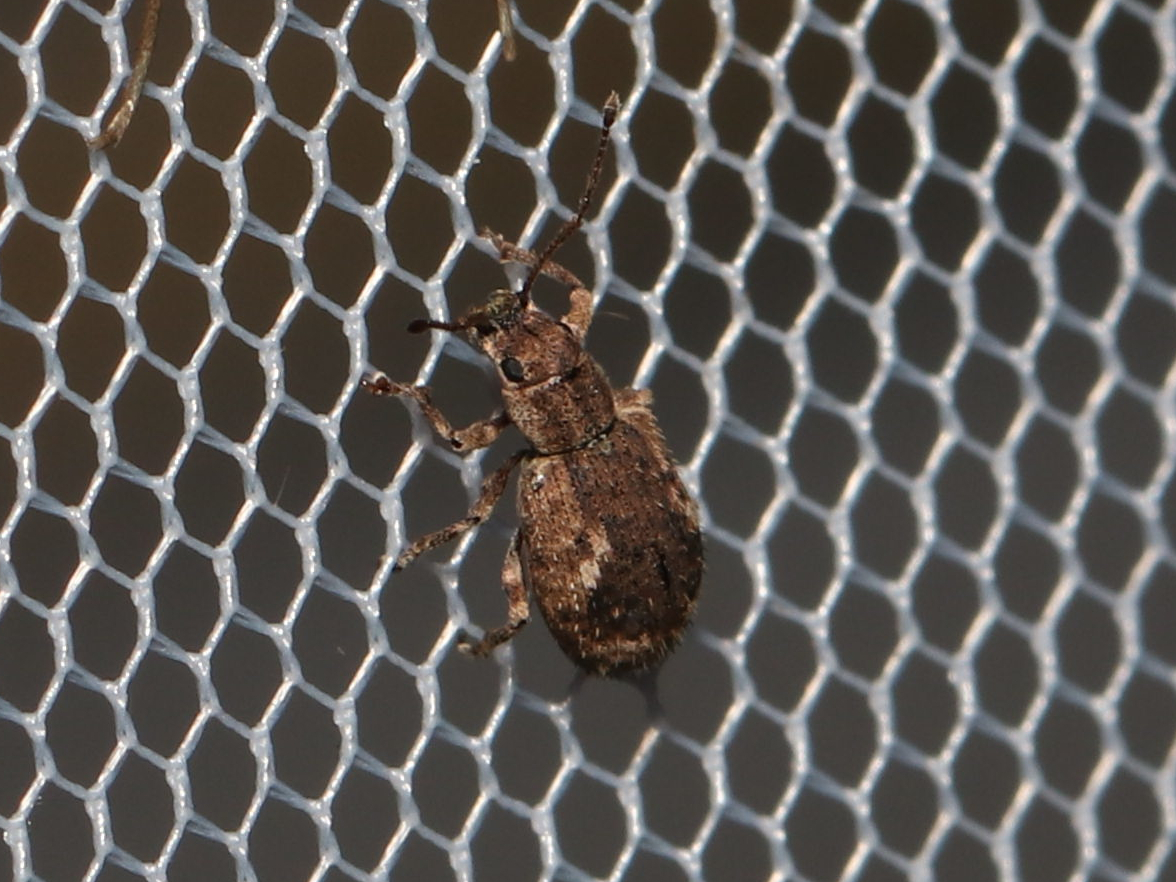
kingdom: Animalia
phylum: Arthropoda
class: Insecta
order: Coleoptera
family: Curculionidae
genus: Pseudoedophrys
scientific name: Pseudoedophrys hilleri
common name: Weevil
